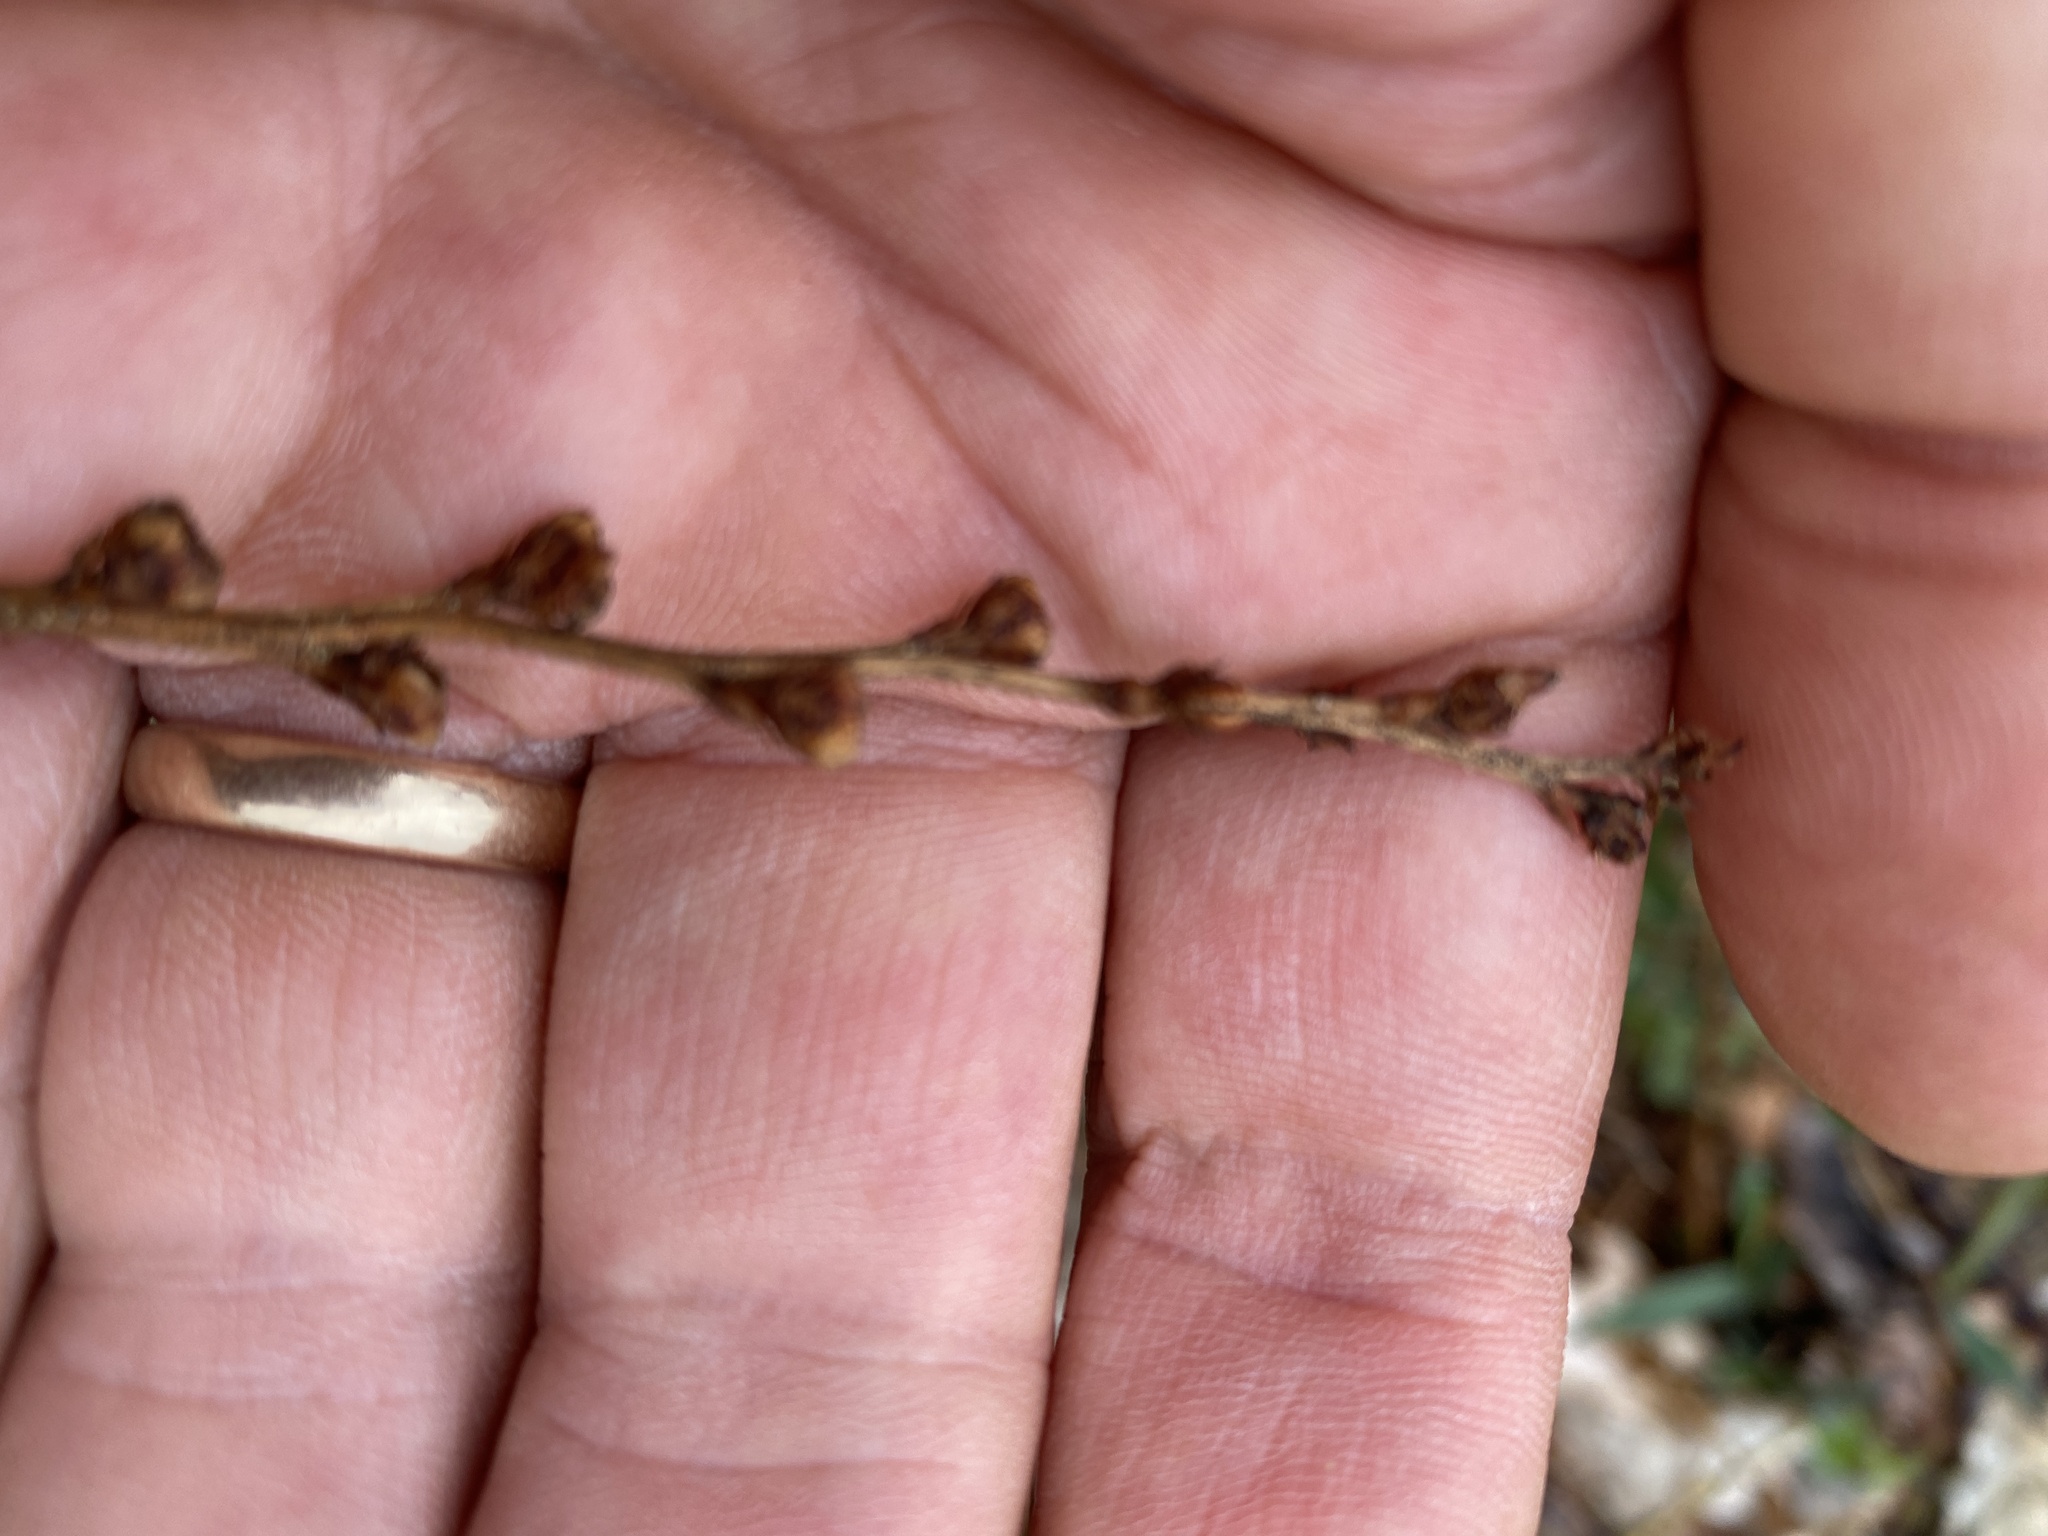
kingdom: Plantae
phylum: Tracheophyta
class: Magnoliopsida
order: Lamiales
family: Orobanchaceae
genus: Epifagus
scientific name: Epifagus virginiana
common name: Beechdrops
